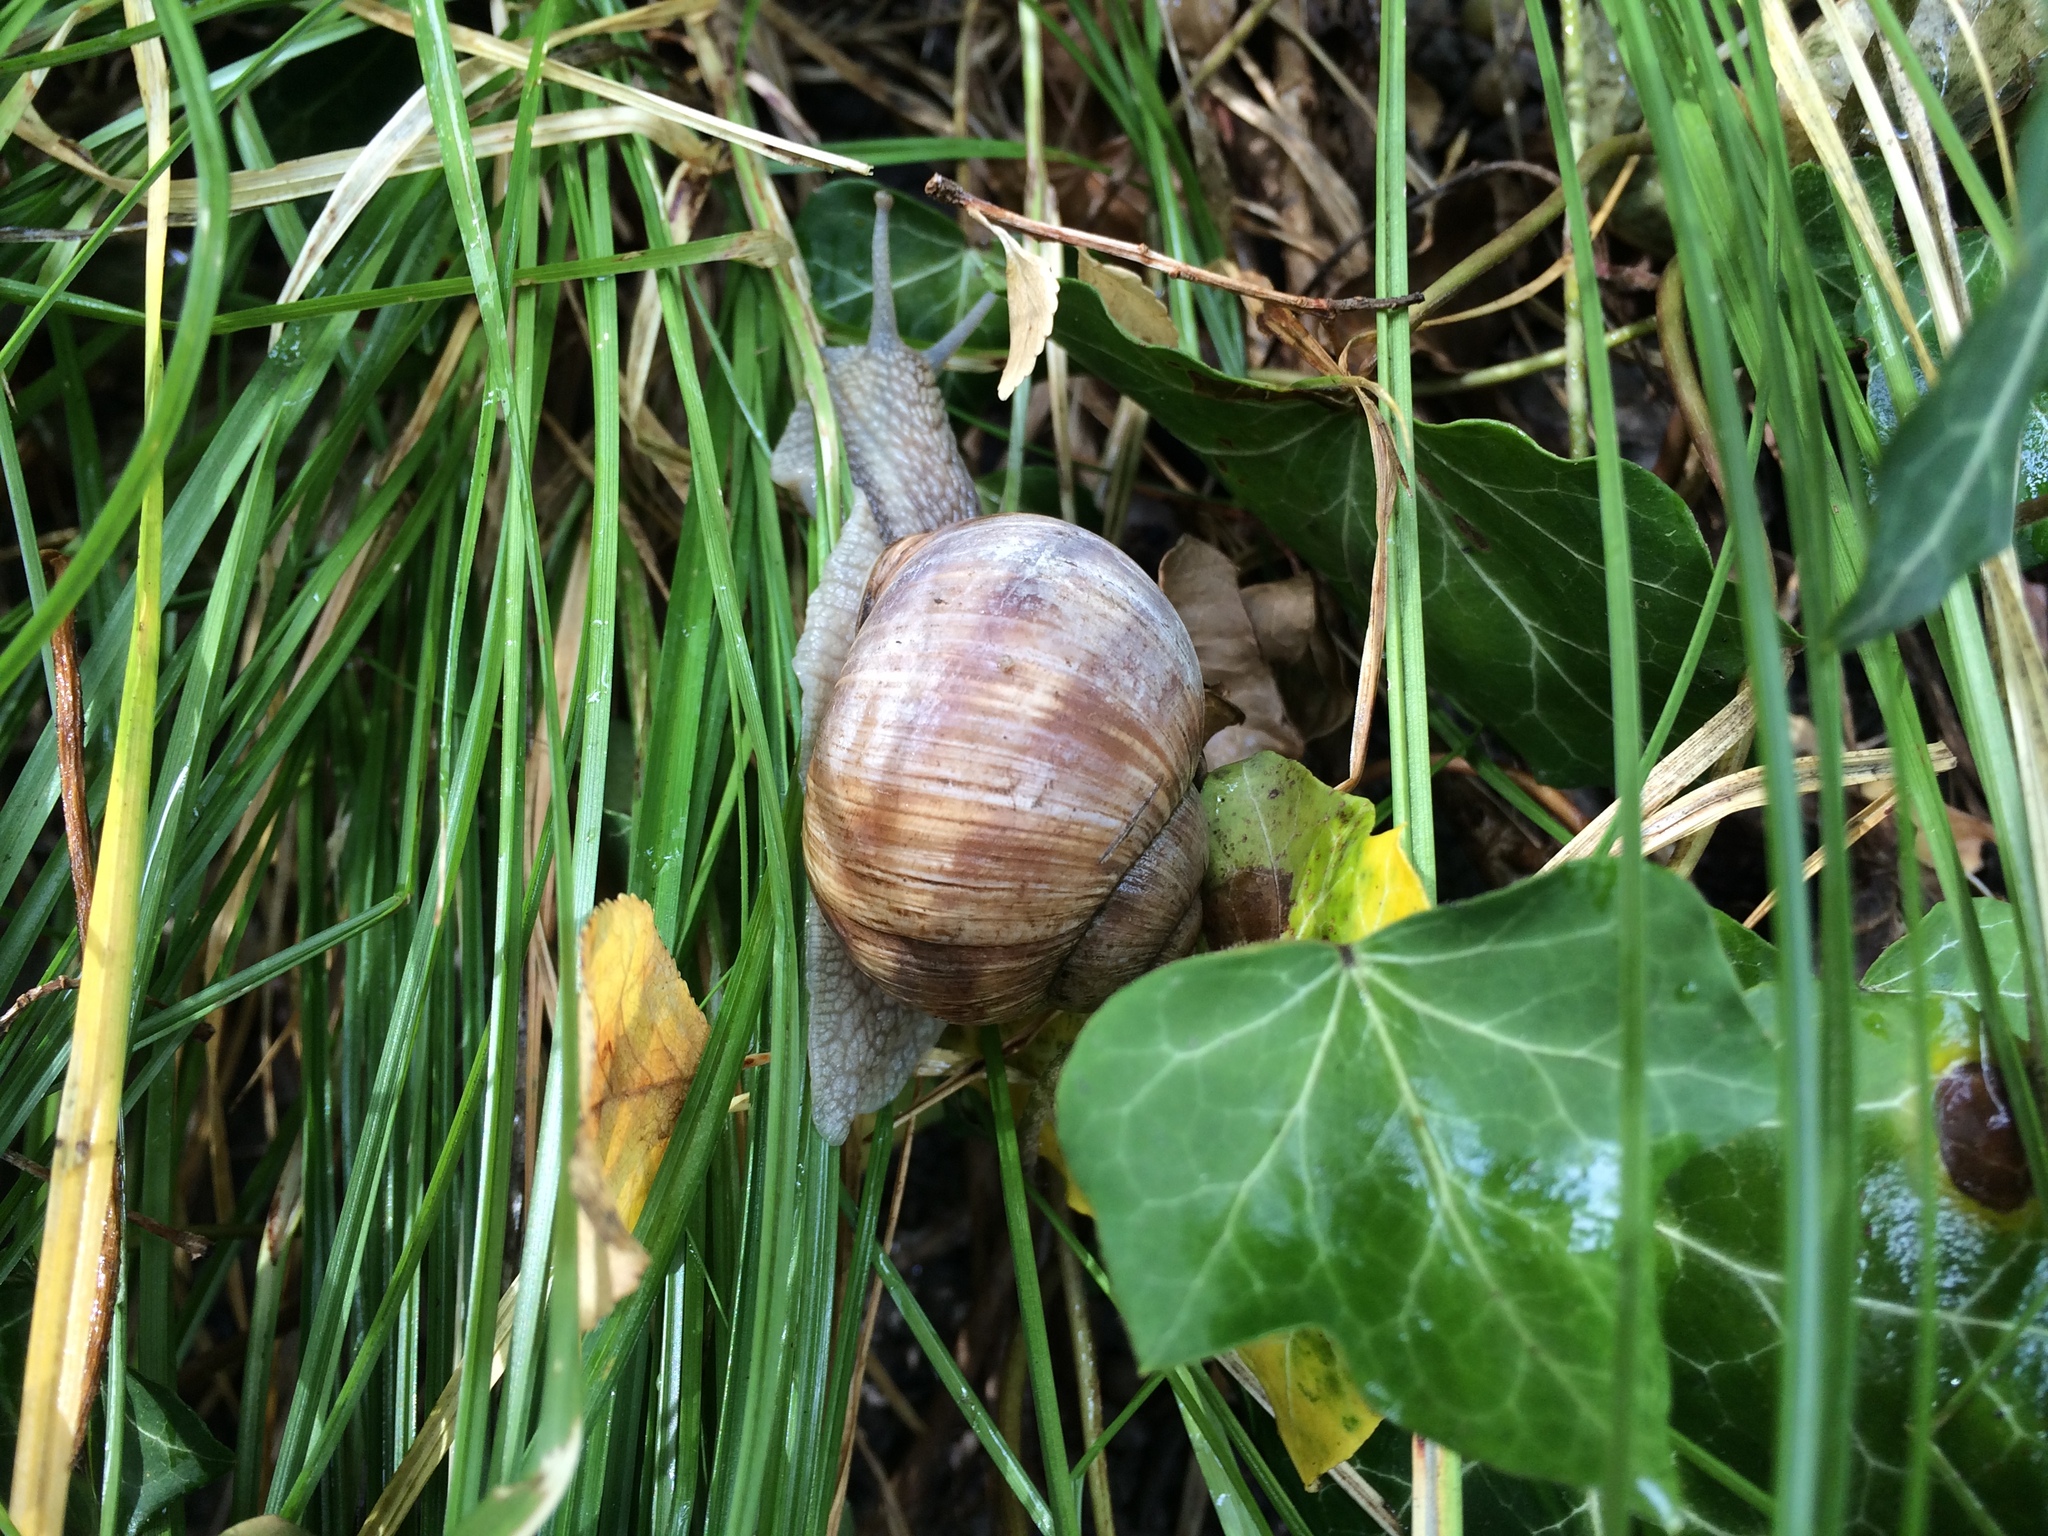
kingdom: Animalia
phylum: Mollusca
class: Gastropoda
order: Stylommatophora
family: Helicidae
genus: Helix
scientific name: Helix pomatia
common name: Roman snail
